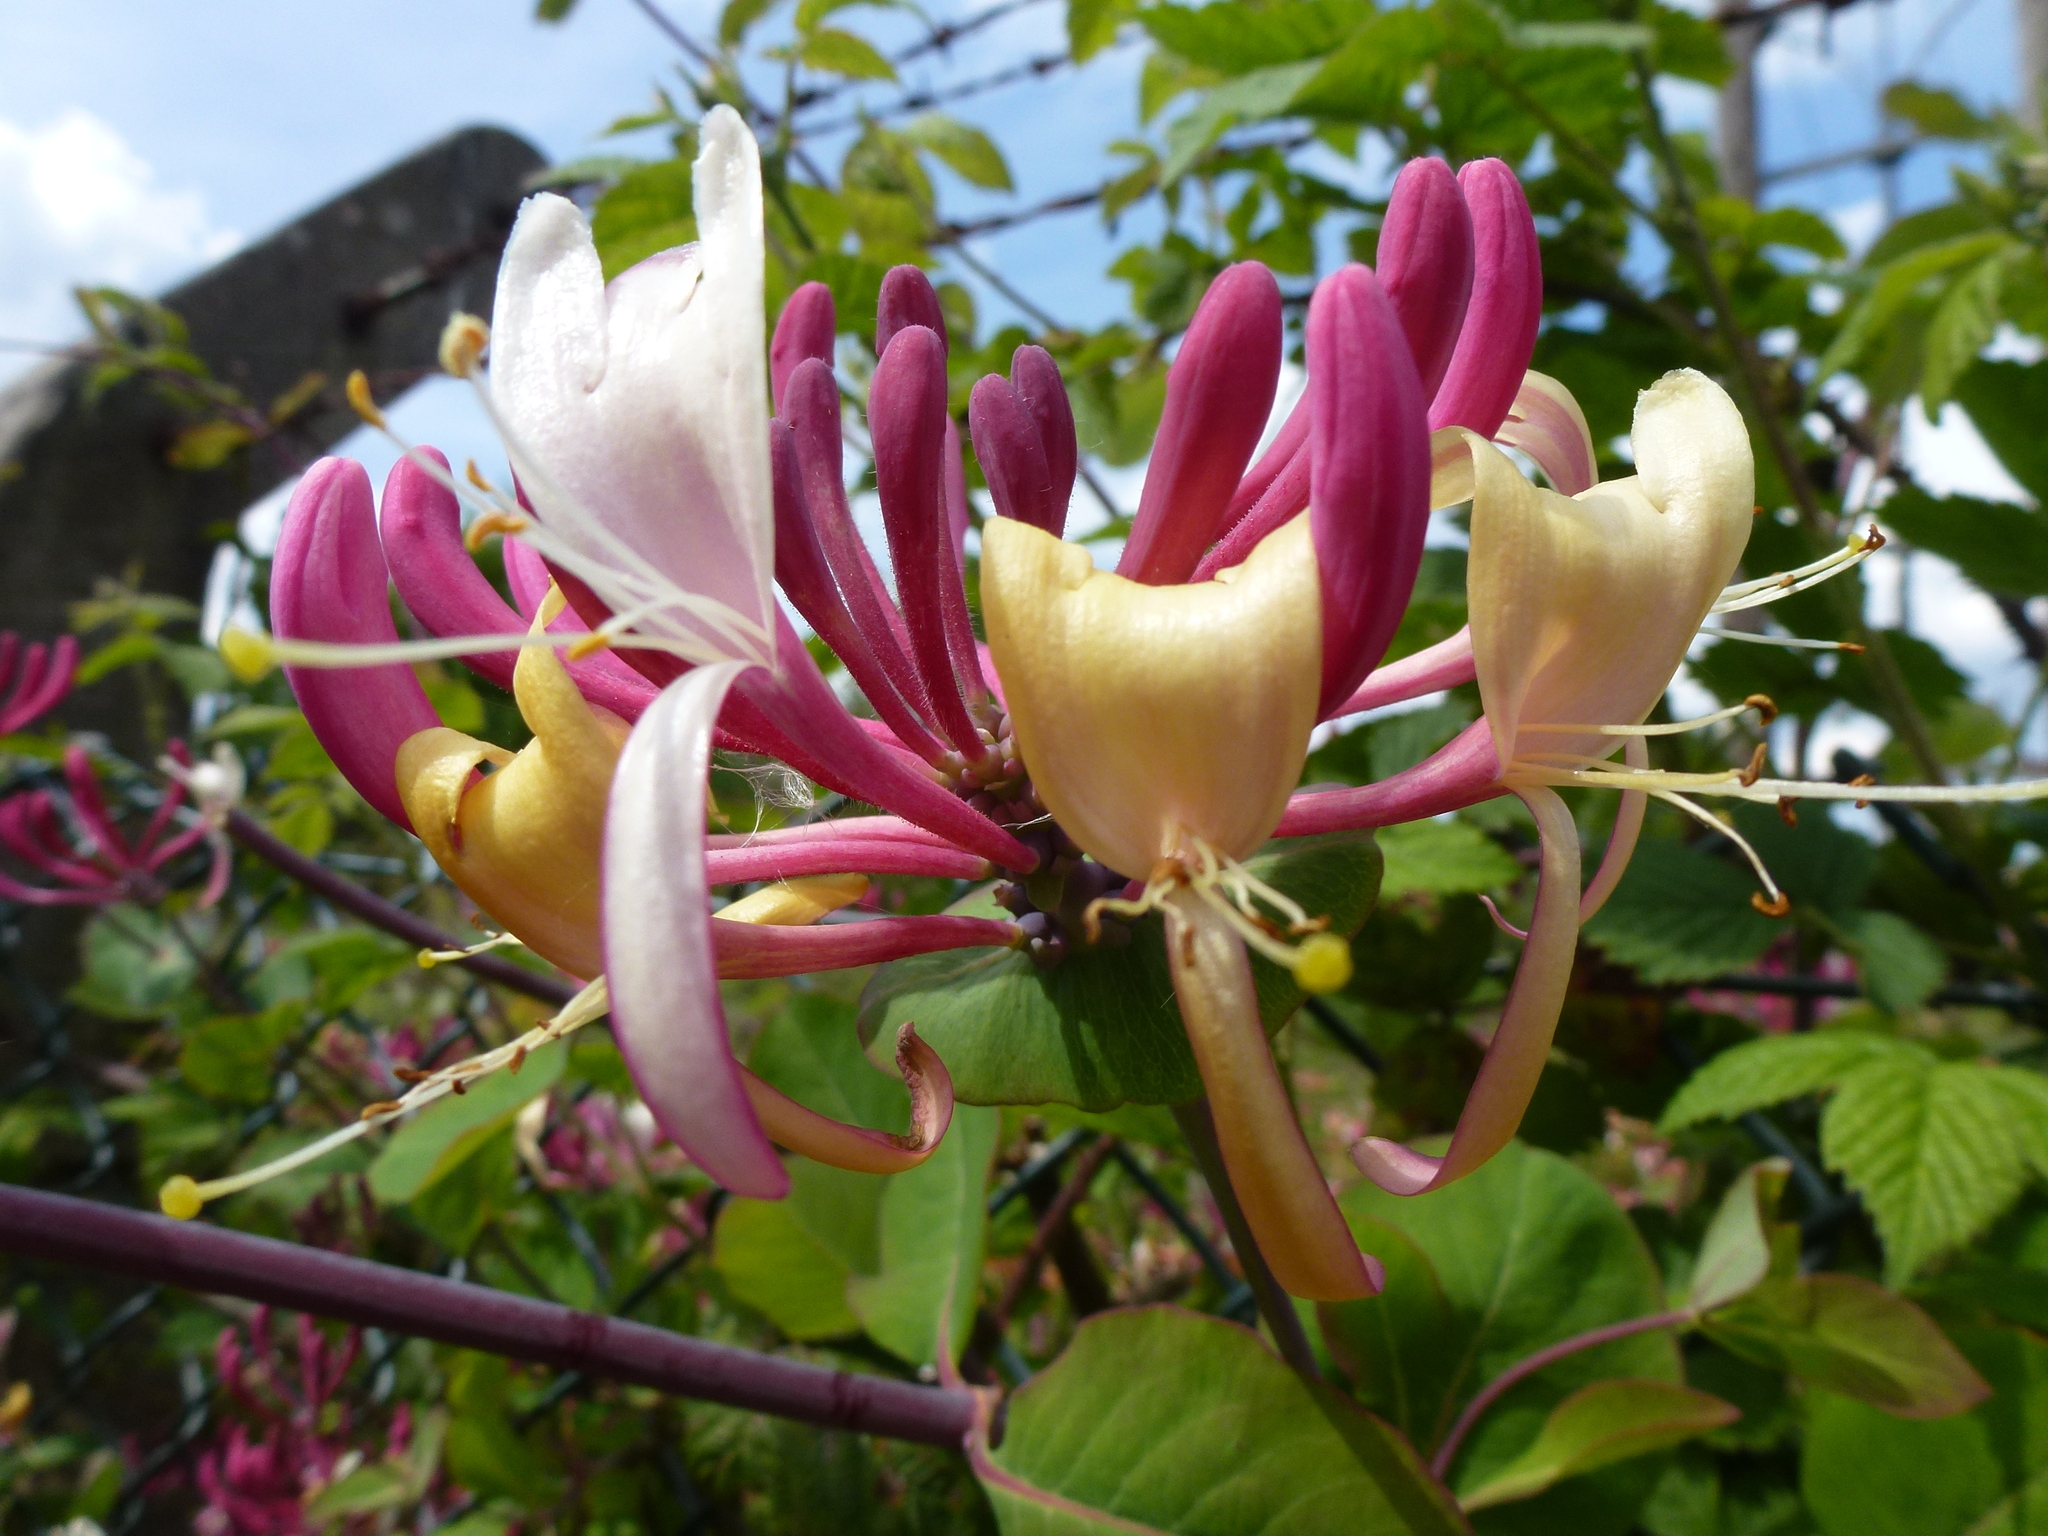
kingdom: Plantae
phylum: Tracheophyta
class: Magnoliopsida
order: Dipsacales
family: Caprifoliaceae
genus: Lonicera
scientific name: Lonicera periclymenum
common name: European honeysuckle
